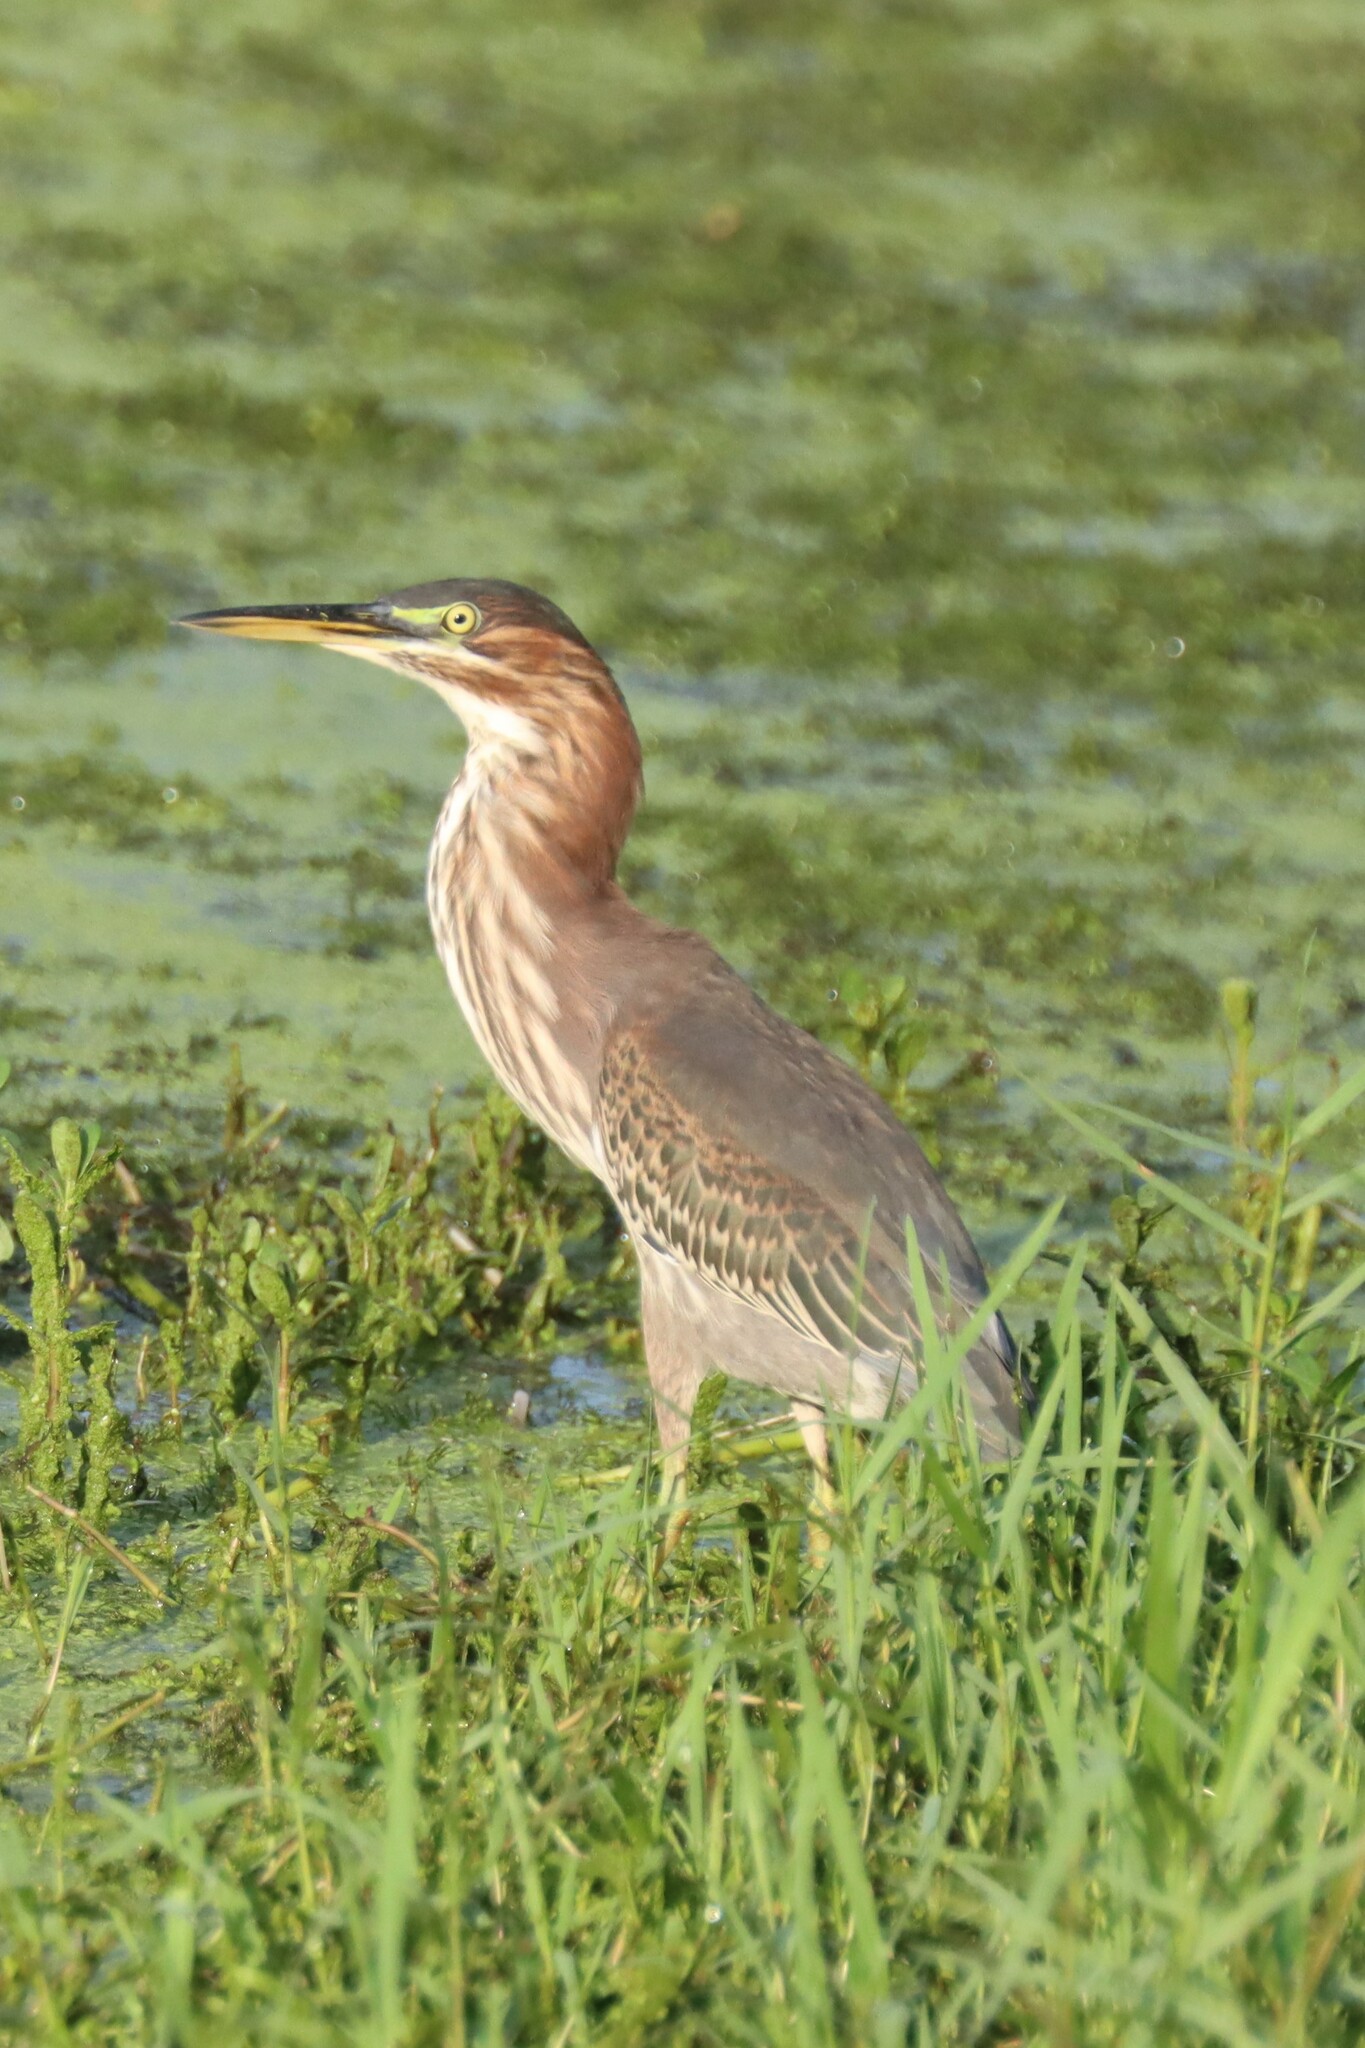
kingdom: Animalia
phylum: Chordata
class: Aves
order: Pelecaniformes
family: Ardeidae
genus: Butorides
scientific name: Butorides virescens
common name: Green heron
